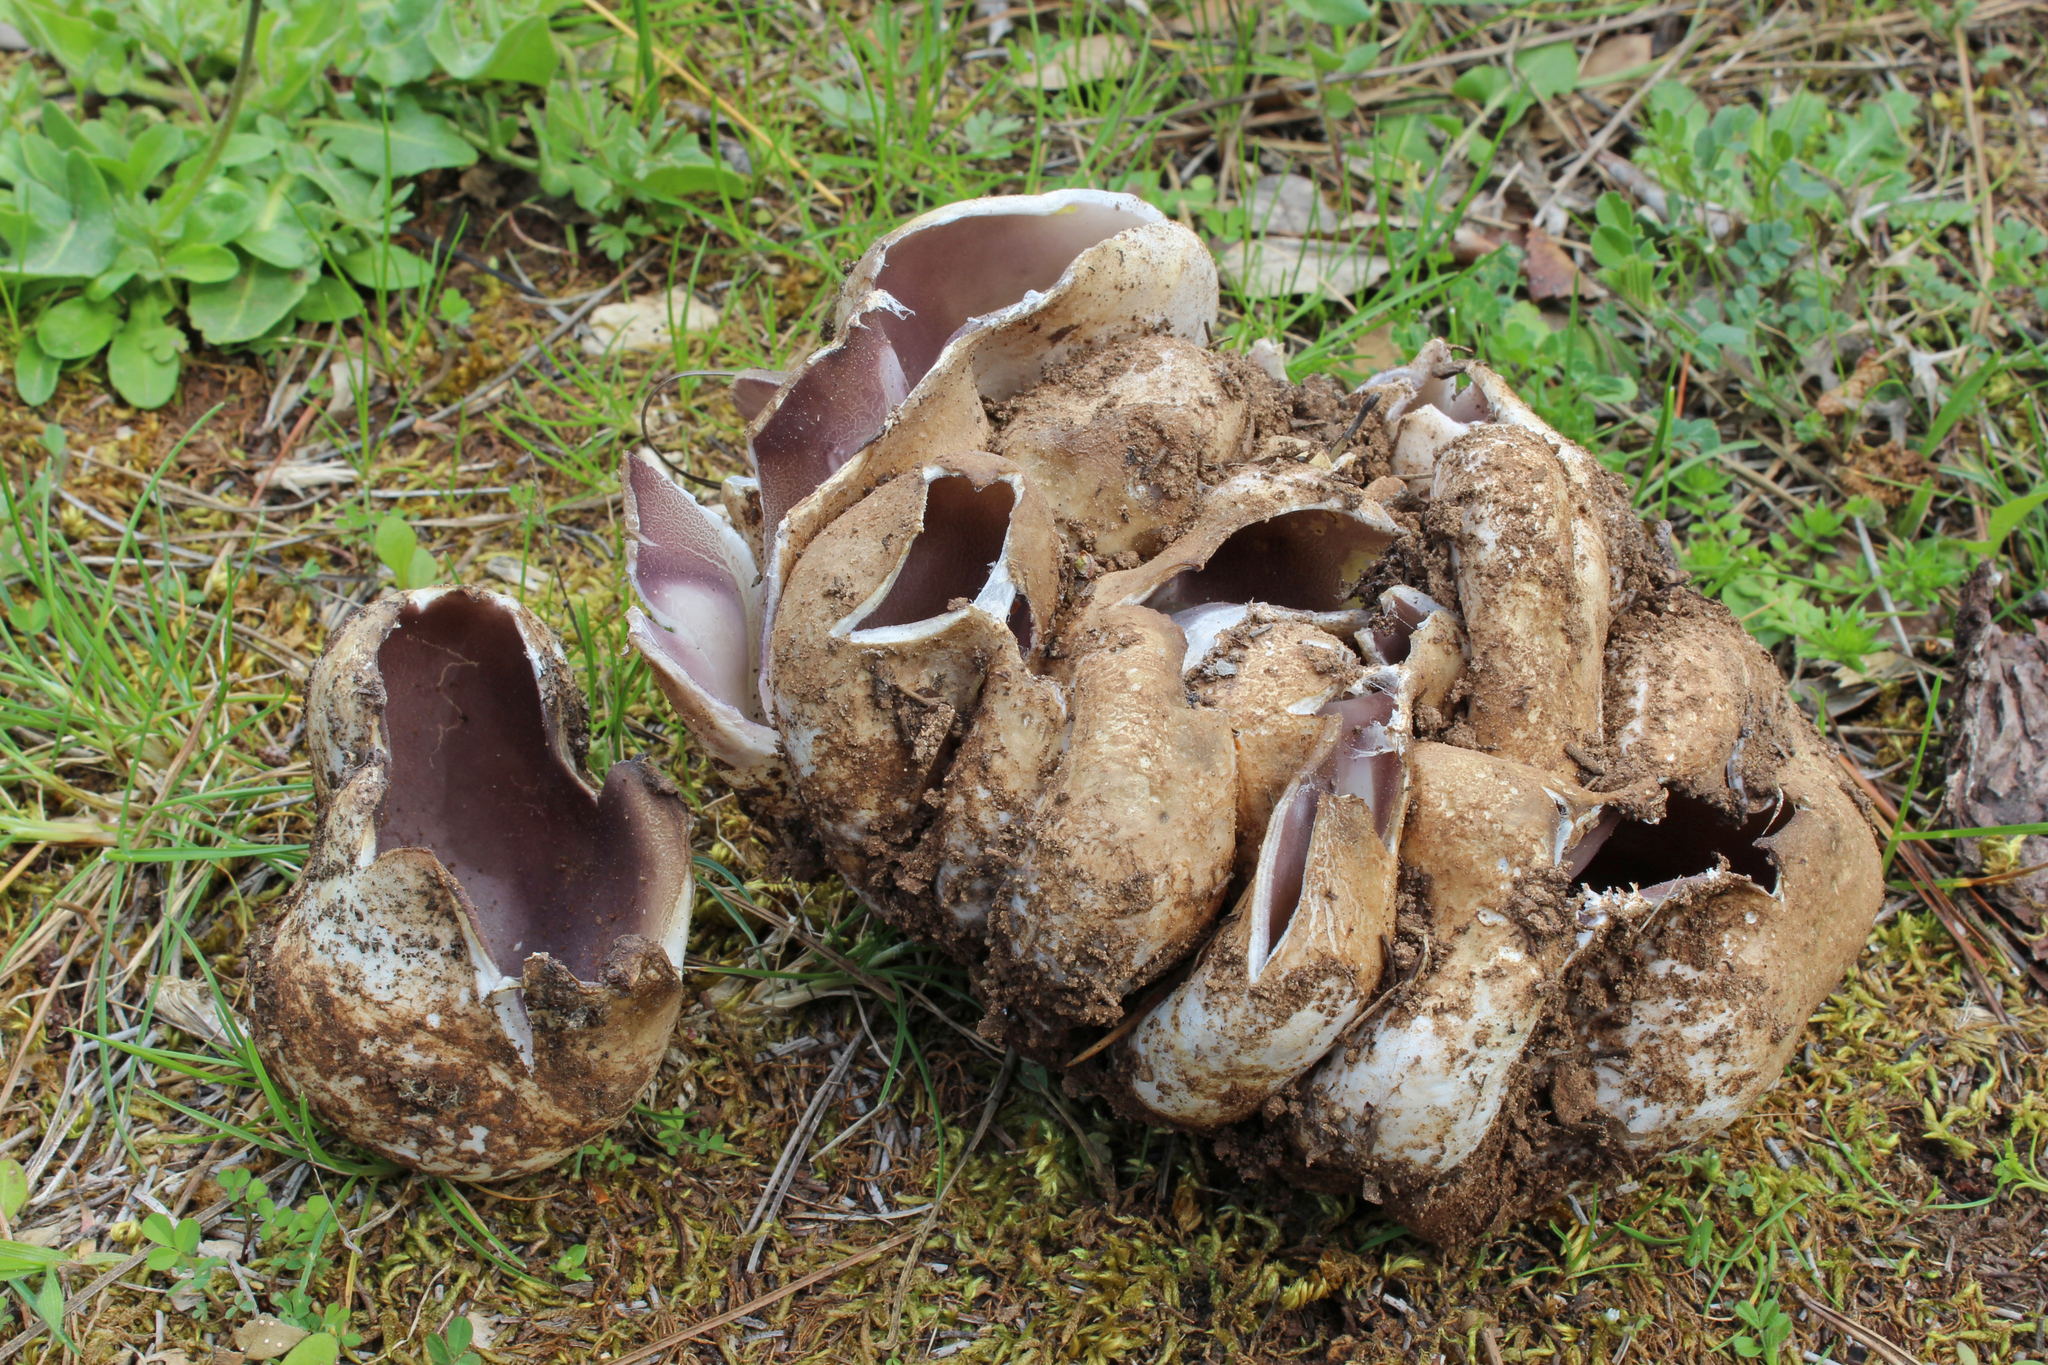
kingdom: Fungi
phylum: Ascomycota
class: Pezizomycetes
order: Pezizales
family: Pezizaceae
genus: Sarcosphaera
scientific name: Sarcosphaera coronaria
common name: Violet crowncup
